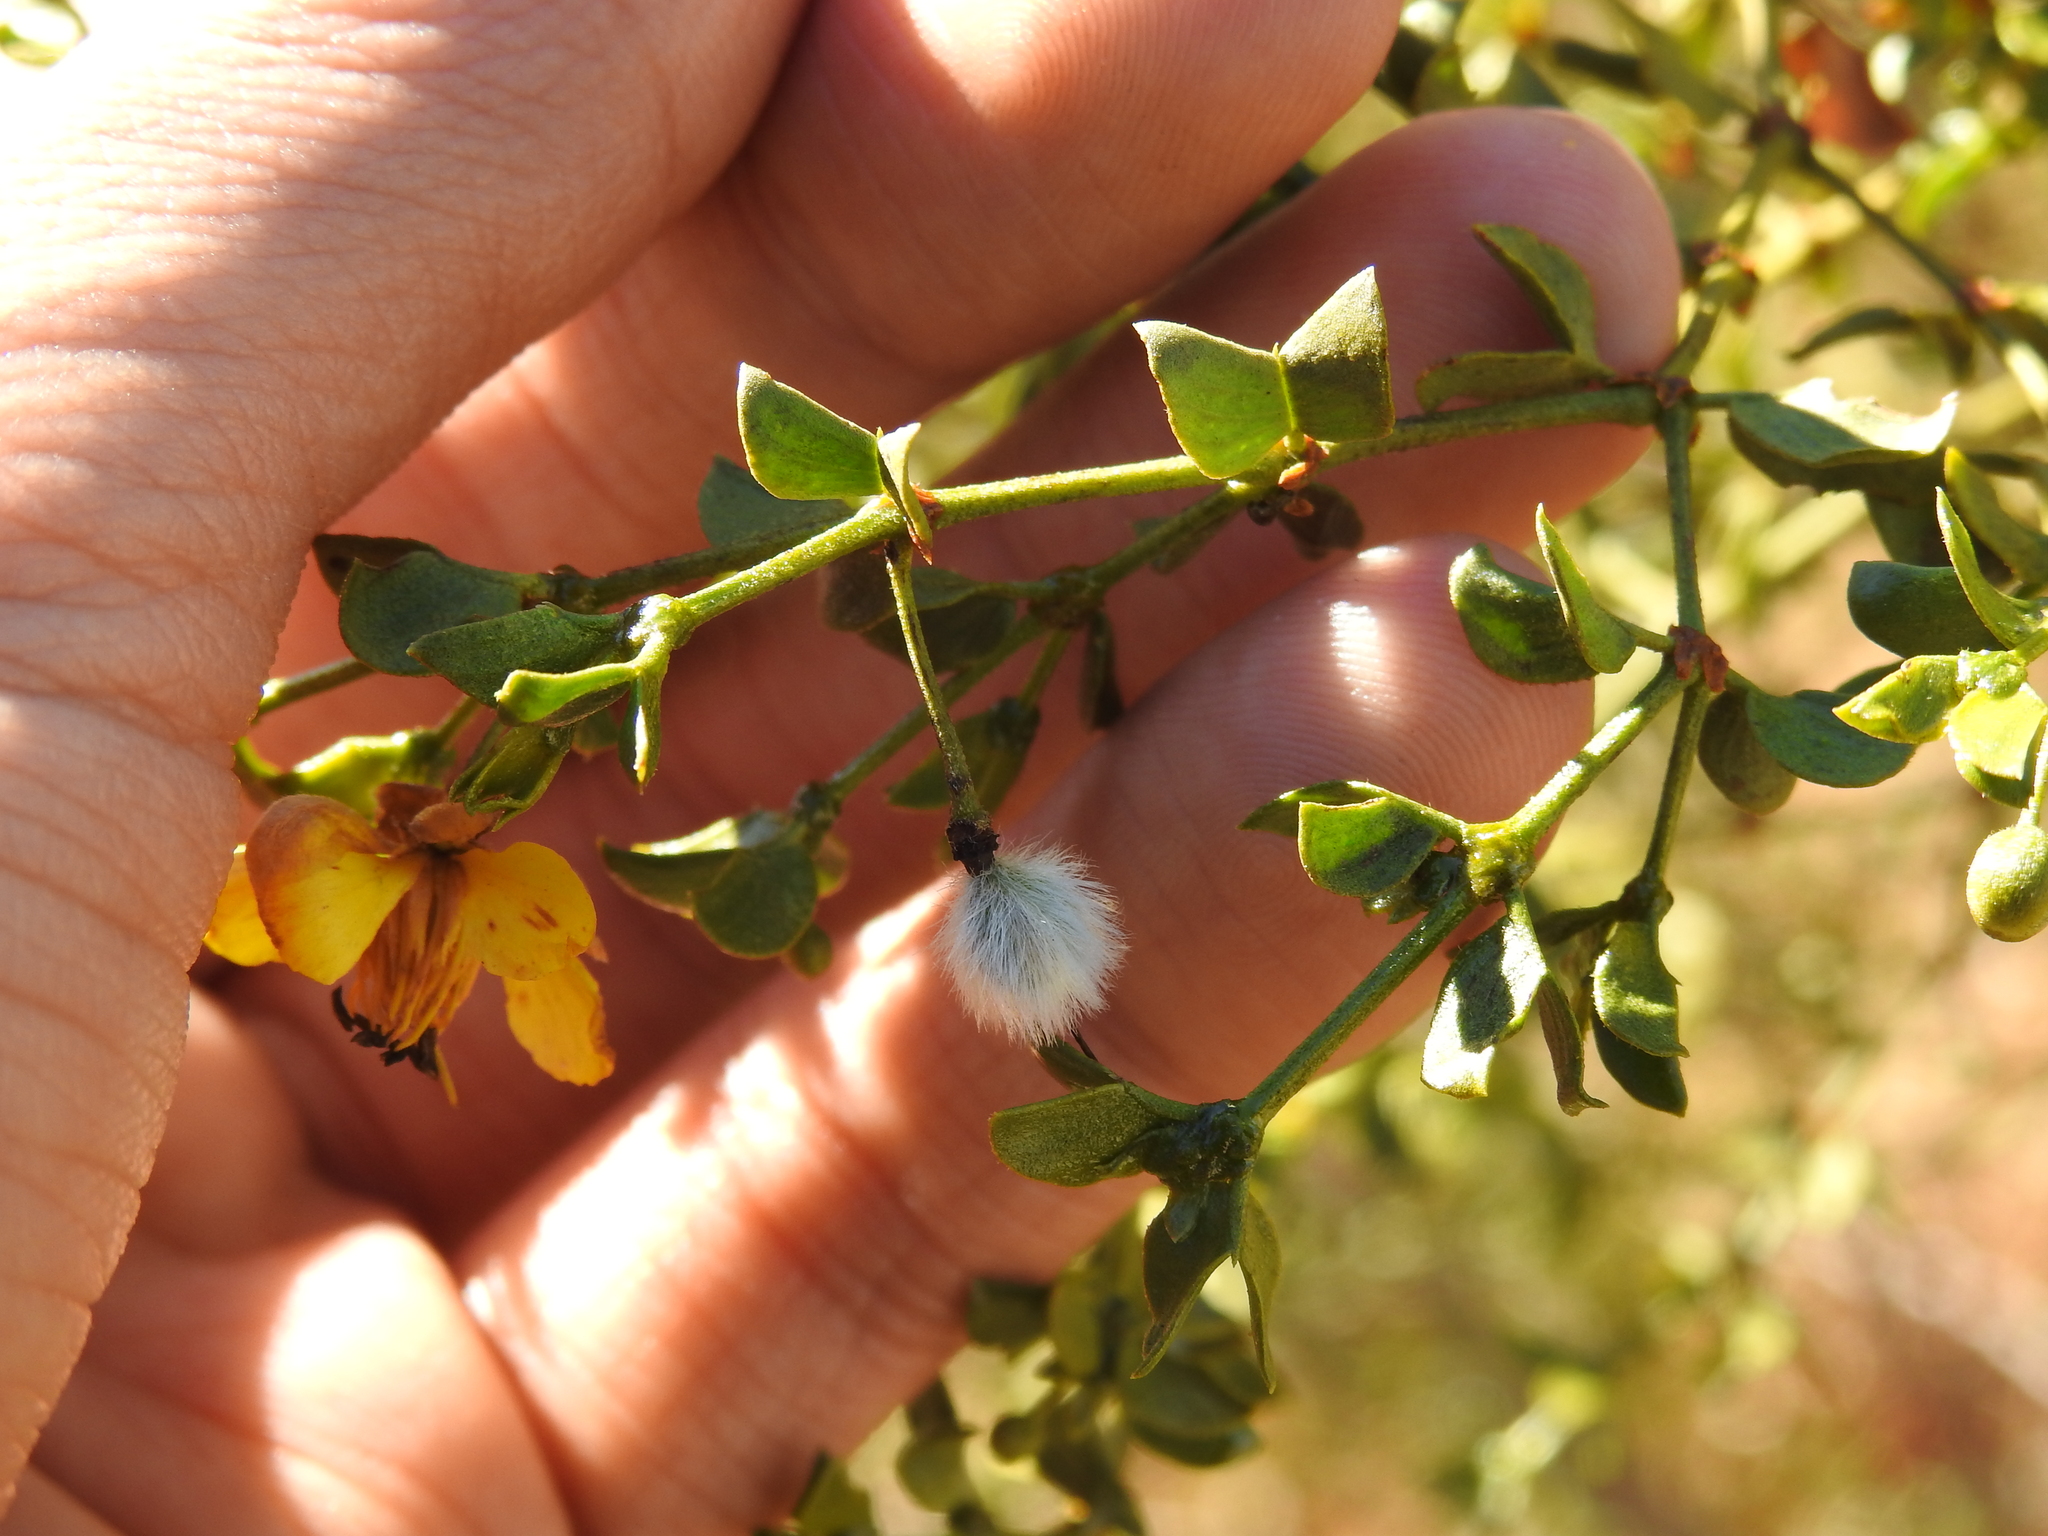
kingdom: Plantae
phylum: Tracheophyta
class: Magnoliopsida
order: Zygophyllales
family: Zygophyllaceae
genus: Larrea
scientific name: Larrea tridentata
